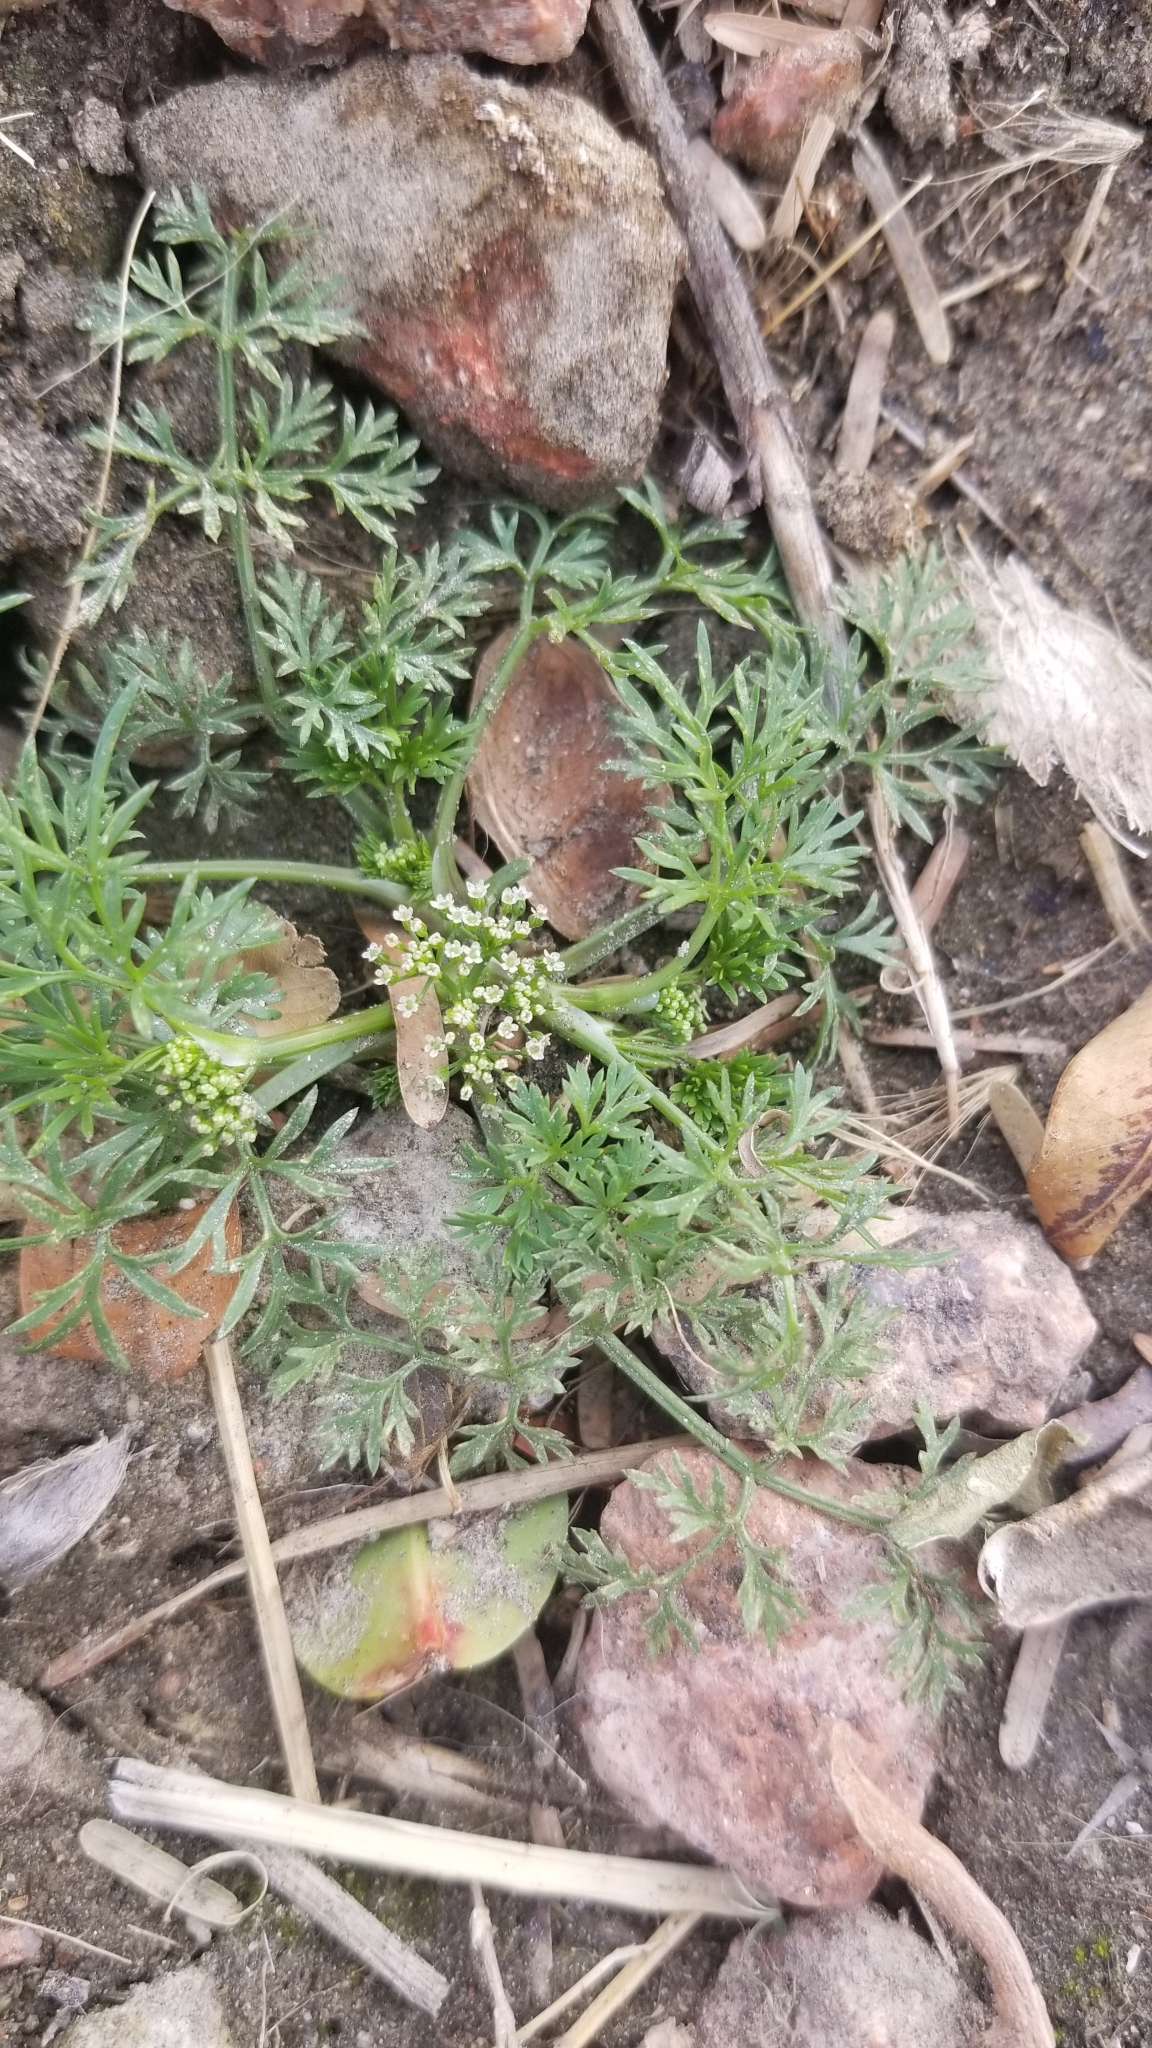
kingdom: Plantae
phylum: Tracheophyta
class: Magnoliopsida
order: Apiales
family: Apiaceae
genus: Cyclospermum
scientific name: Cyclospermum leptophyllum
